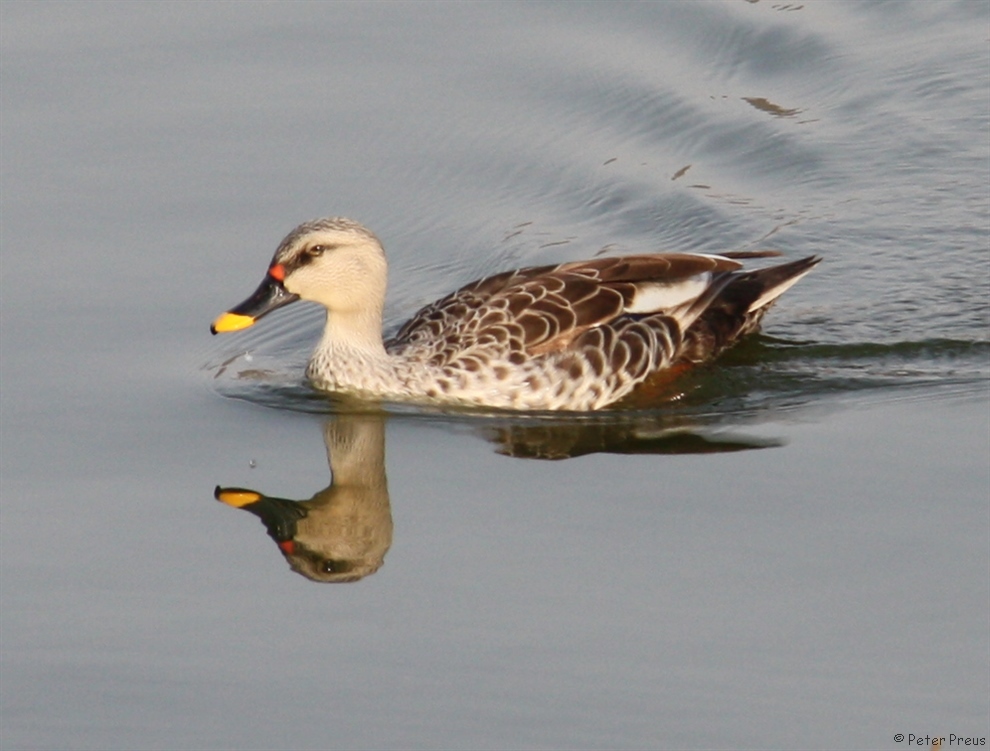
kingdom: Animalia
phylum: Chordata
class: Aves
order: Anseriformes
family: Anatidae
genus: Anas
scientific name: Anas poecilorhyncha
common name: Indian spot-billed duck
